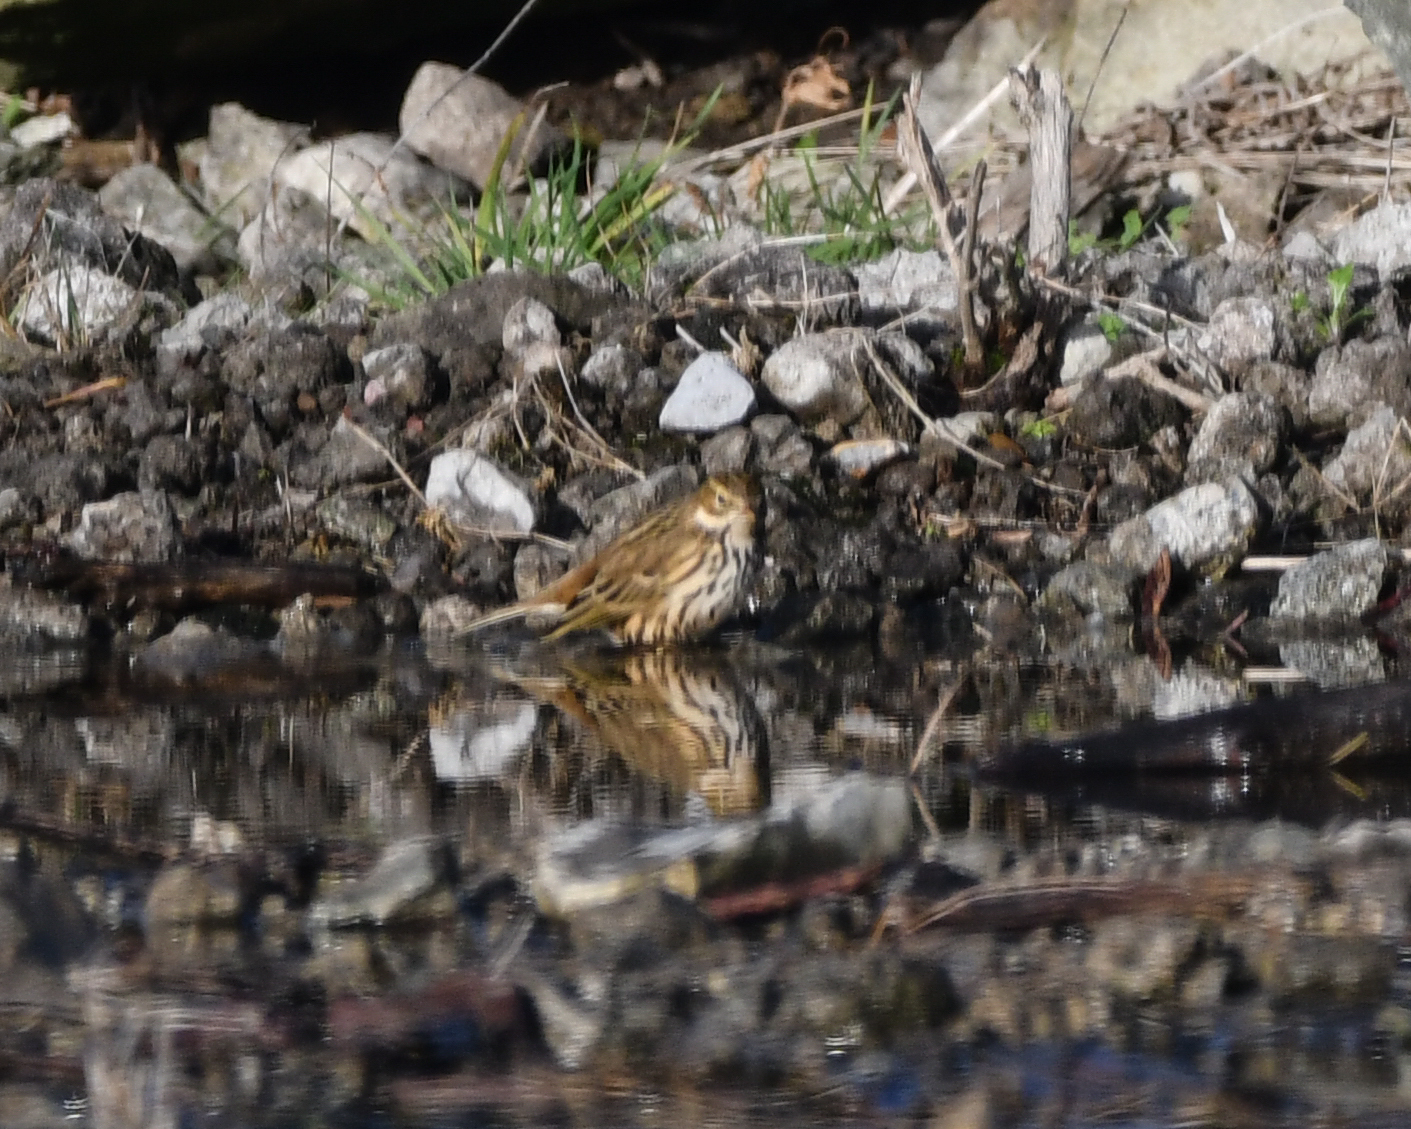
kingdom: Animalia
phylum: Chordata
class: Aves
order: Passeriformes
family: Motacillidae
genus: Anthus
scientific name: Anthus pratensis
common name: Meadow pipit
